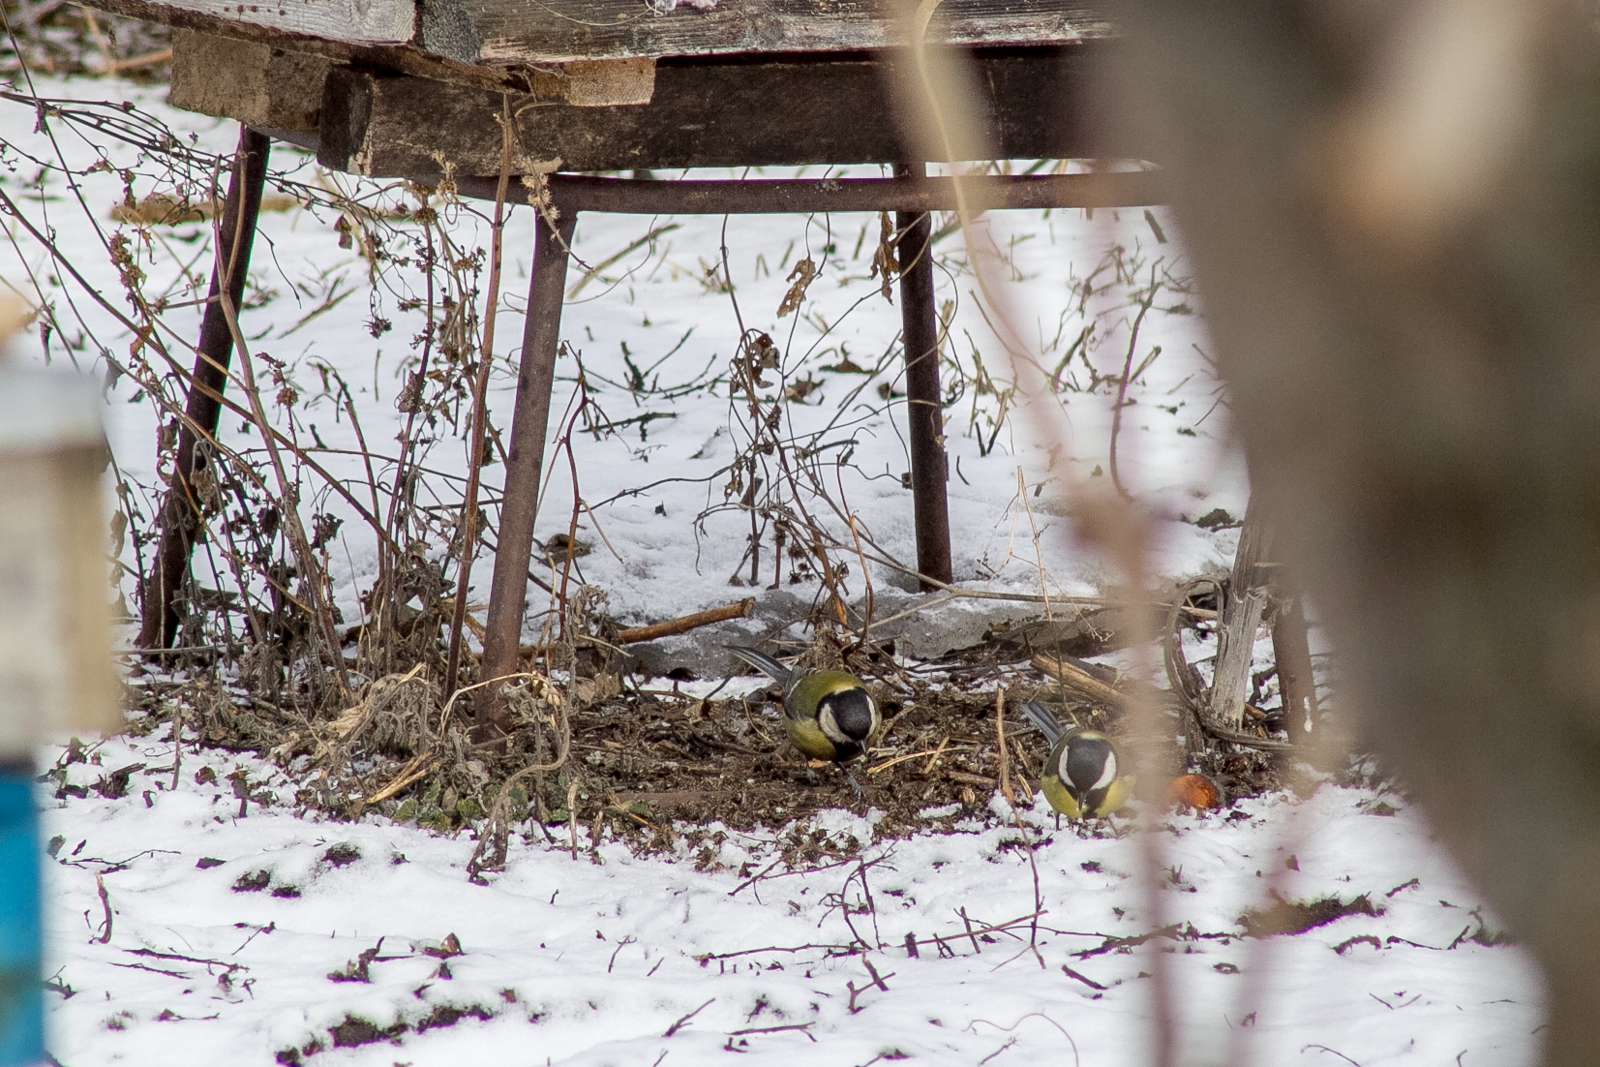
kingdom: Animalia
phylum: Chordata
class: Aves
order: Passeriformes
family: Paridae
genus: Parus
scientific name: Parus major
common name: Great tit
